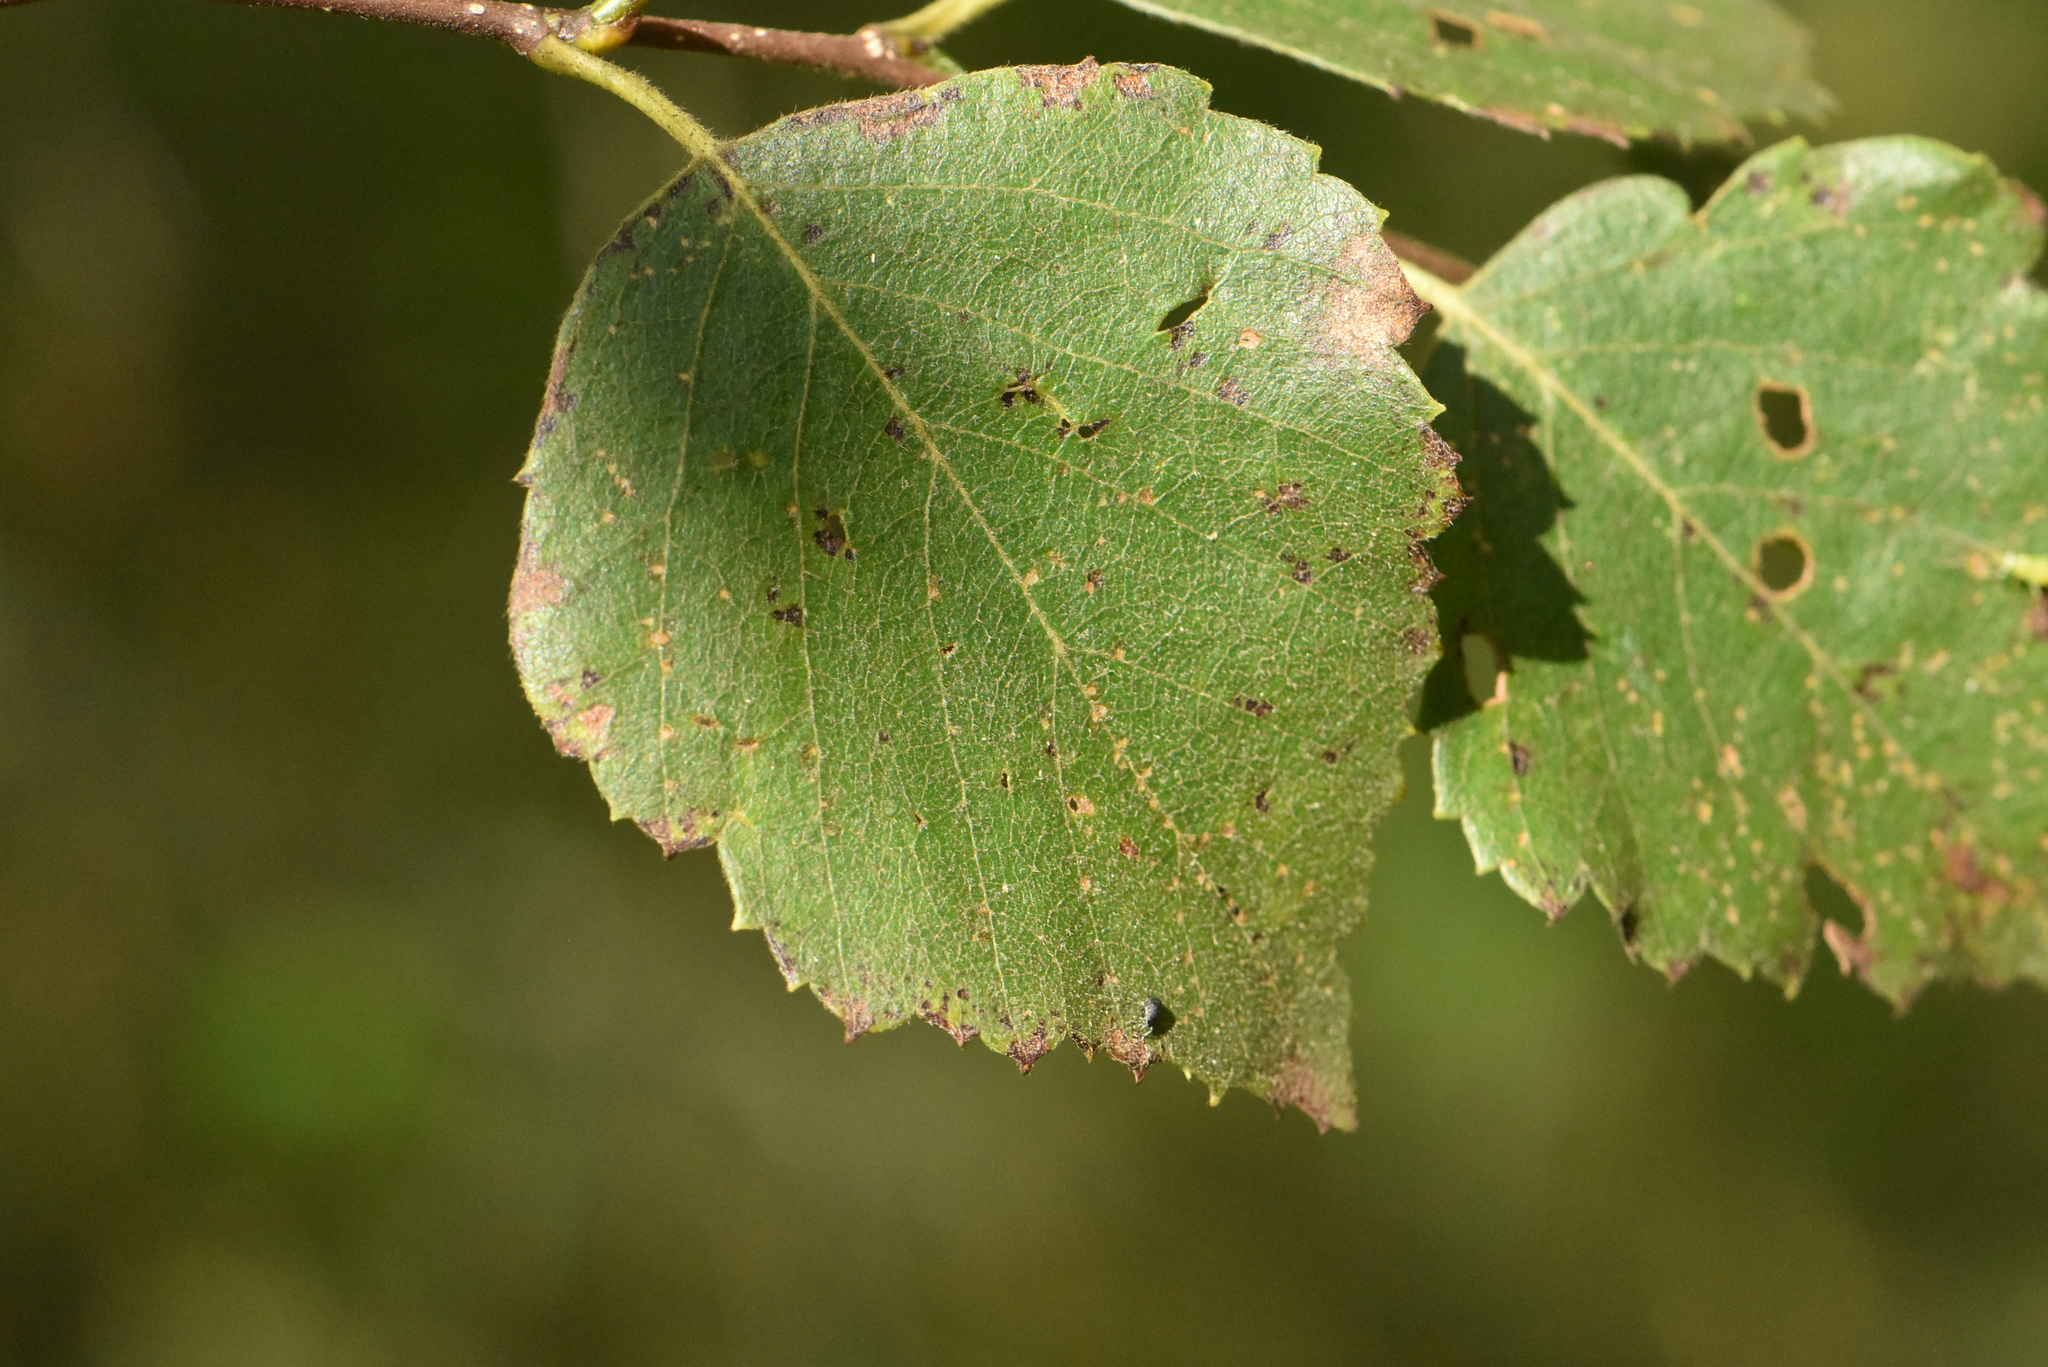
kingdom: Plantae
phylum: Tracheophyta
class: Magnoliopsida
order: Fagales
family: Betulaceae
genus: Betula
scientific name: Betula pubescens
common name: Downy birch
